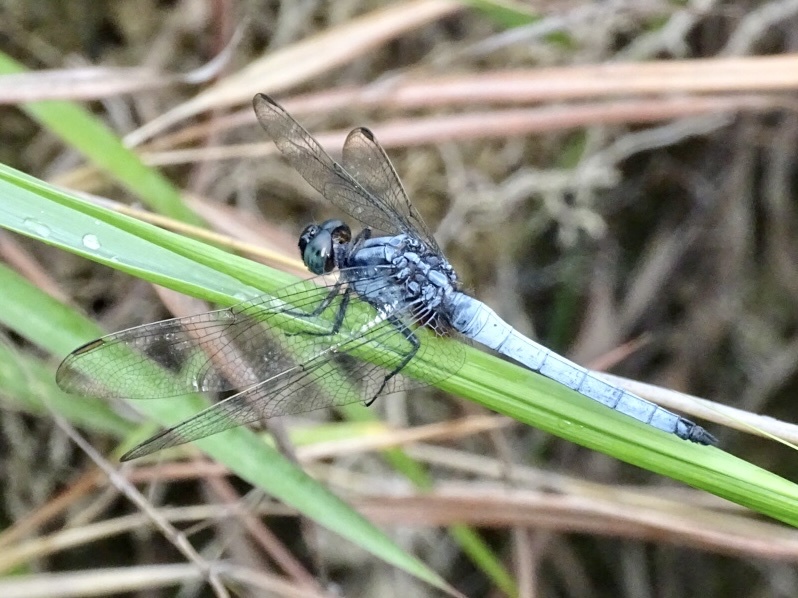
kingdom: Animalia
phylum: Arthropoda
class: Insecta
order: Odonata
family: Libellulidae
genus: Orthetrum
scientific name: Orthetrum glaucum
